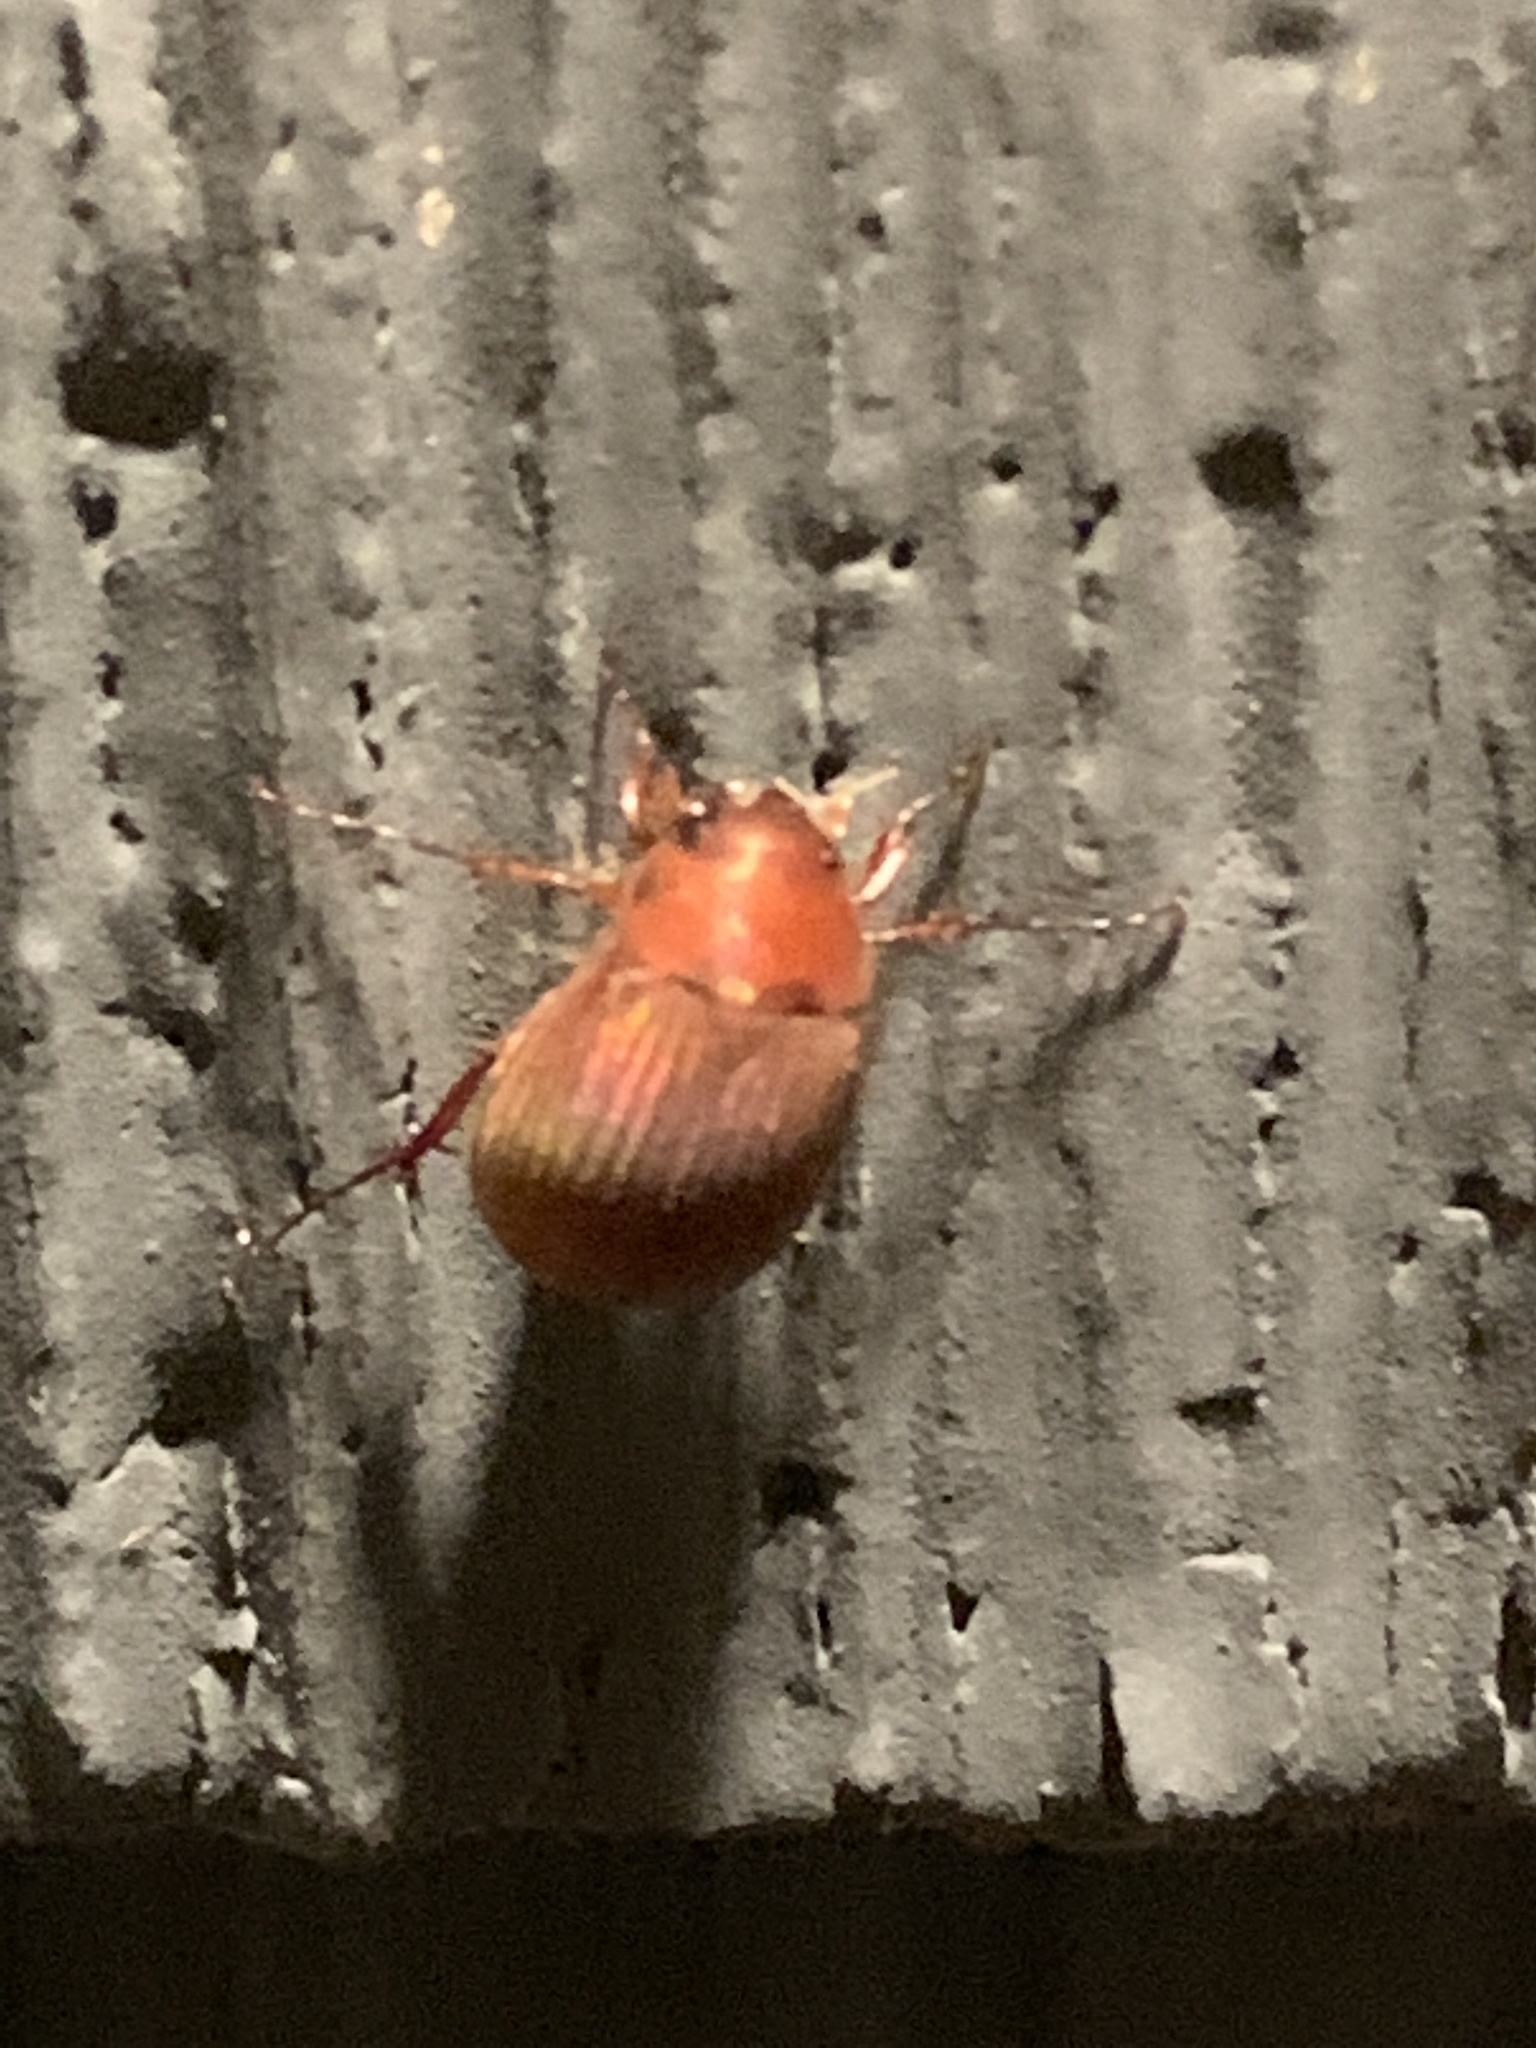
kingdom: Animalia
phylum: Arthropoda
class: Insecta
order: Coleoptera
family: Scarabaeidae
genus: Maladera
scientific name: Maladera formosae
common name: Asiatic garden beetle
